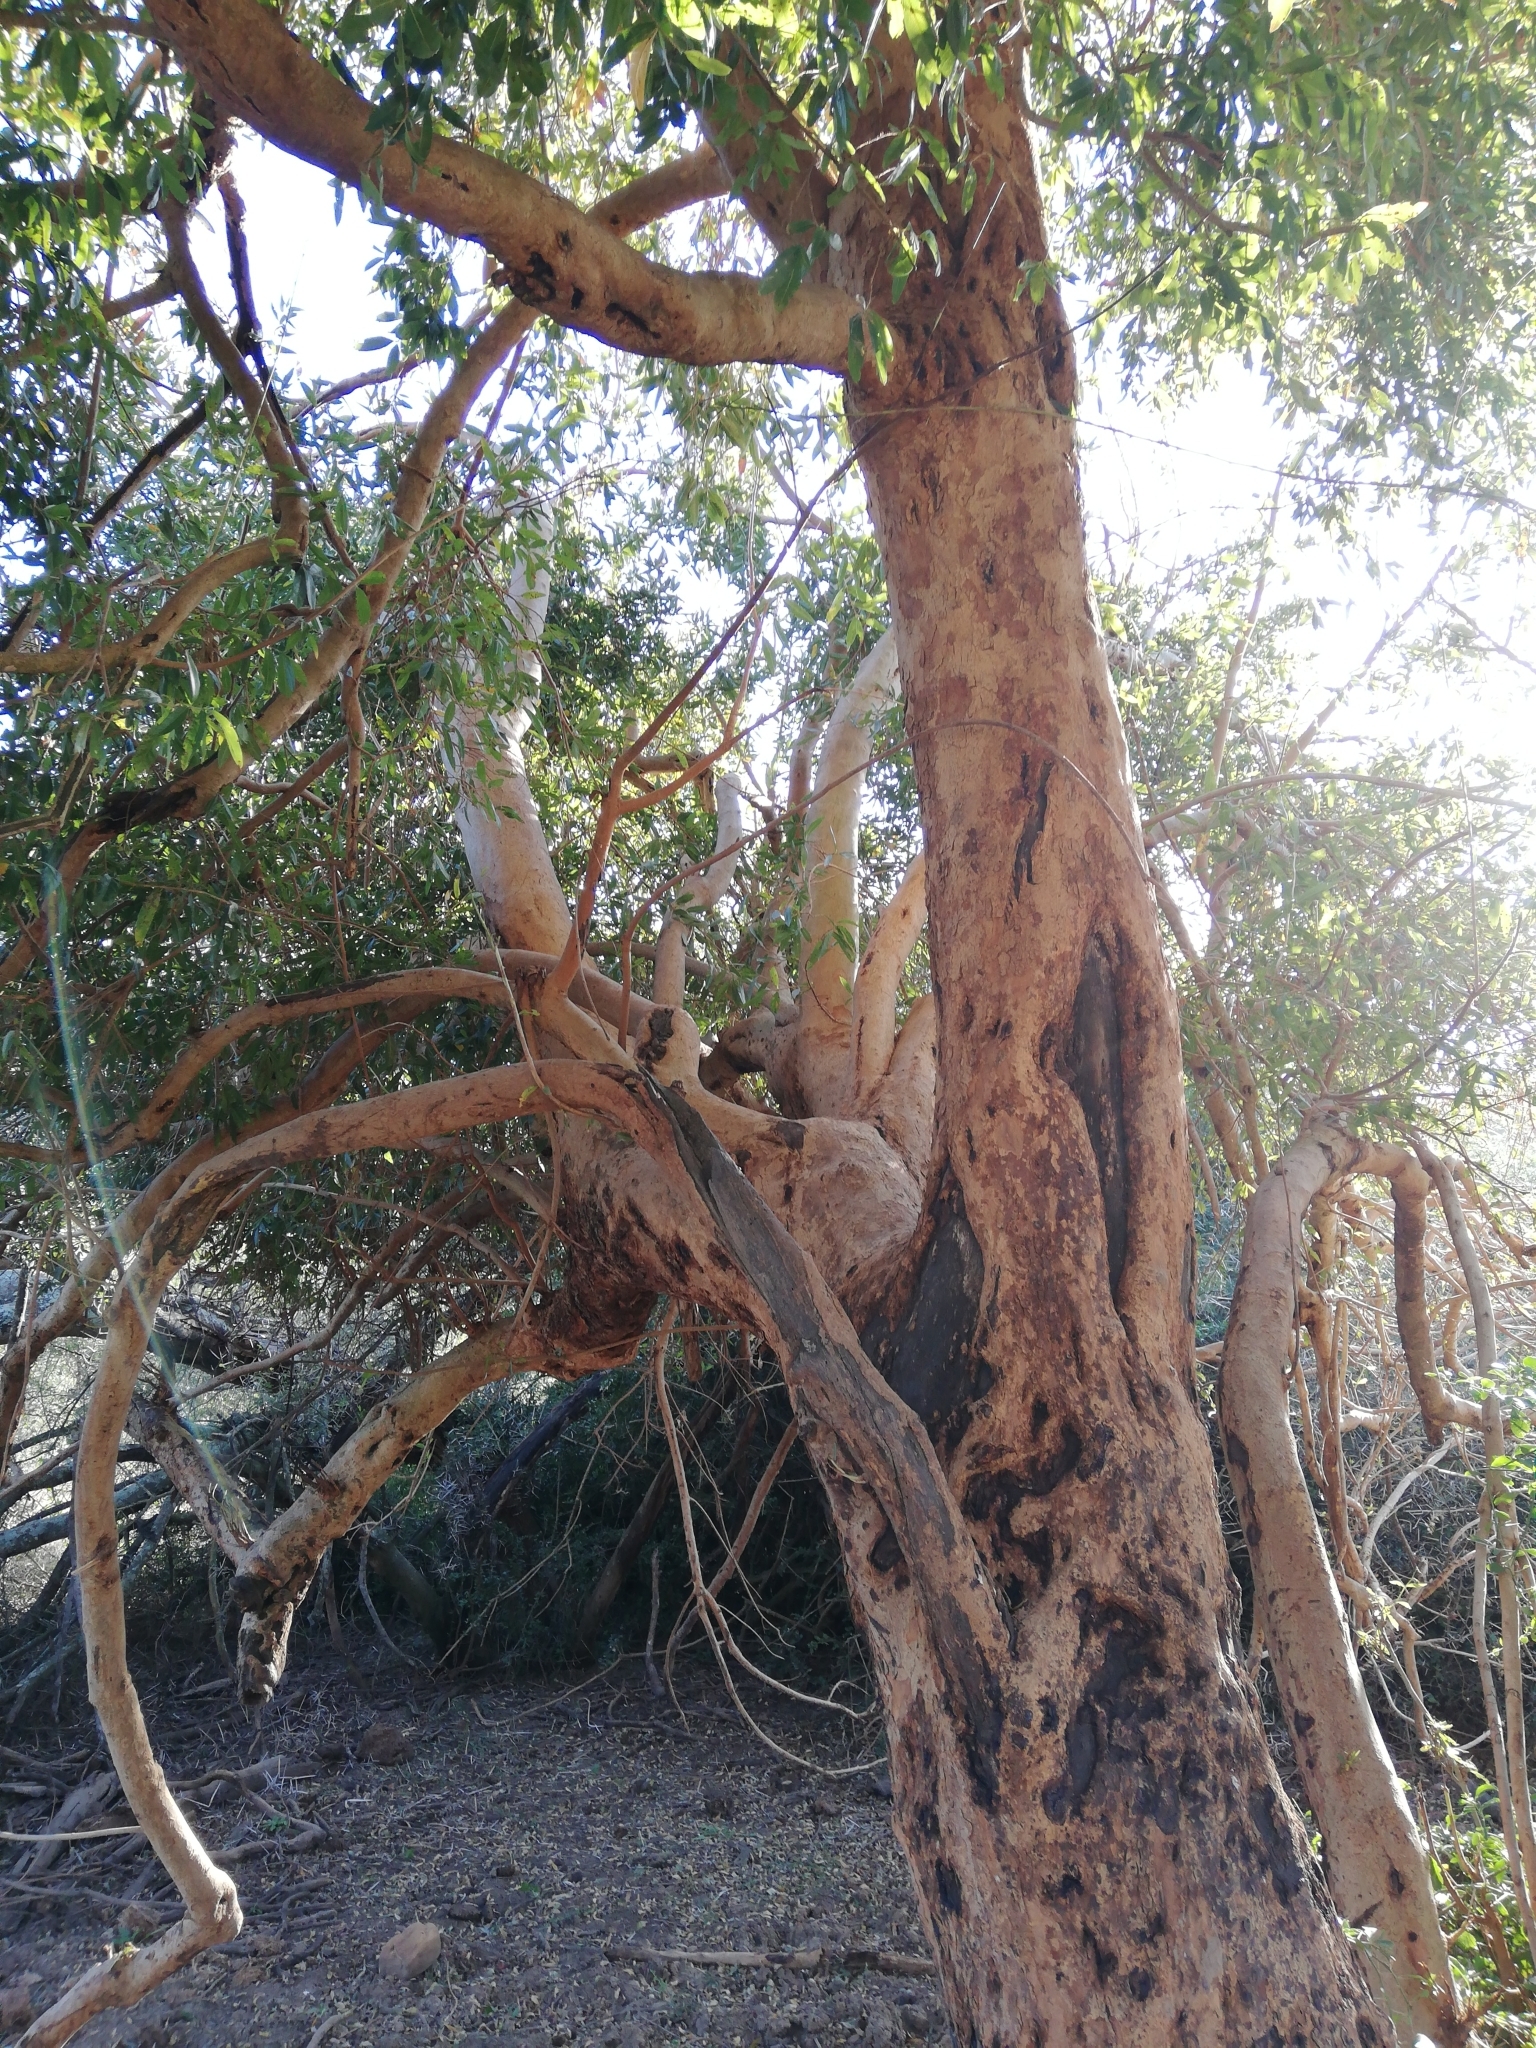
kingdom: Plantae
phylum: Tracheophyta
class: Magnoliopsida
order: Myrtales
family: Combretaceae
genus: Combretum
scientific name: Combretum caffrum
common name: Cape bushwillow
